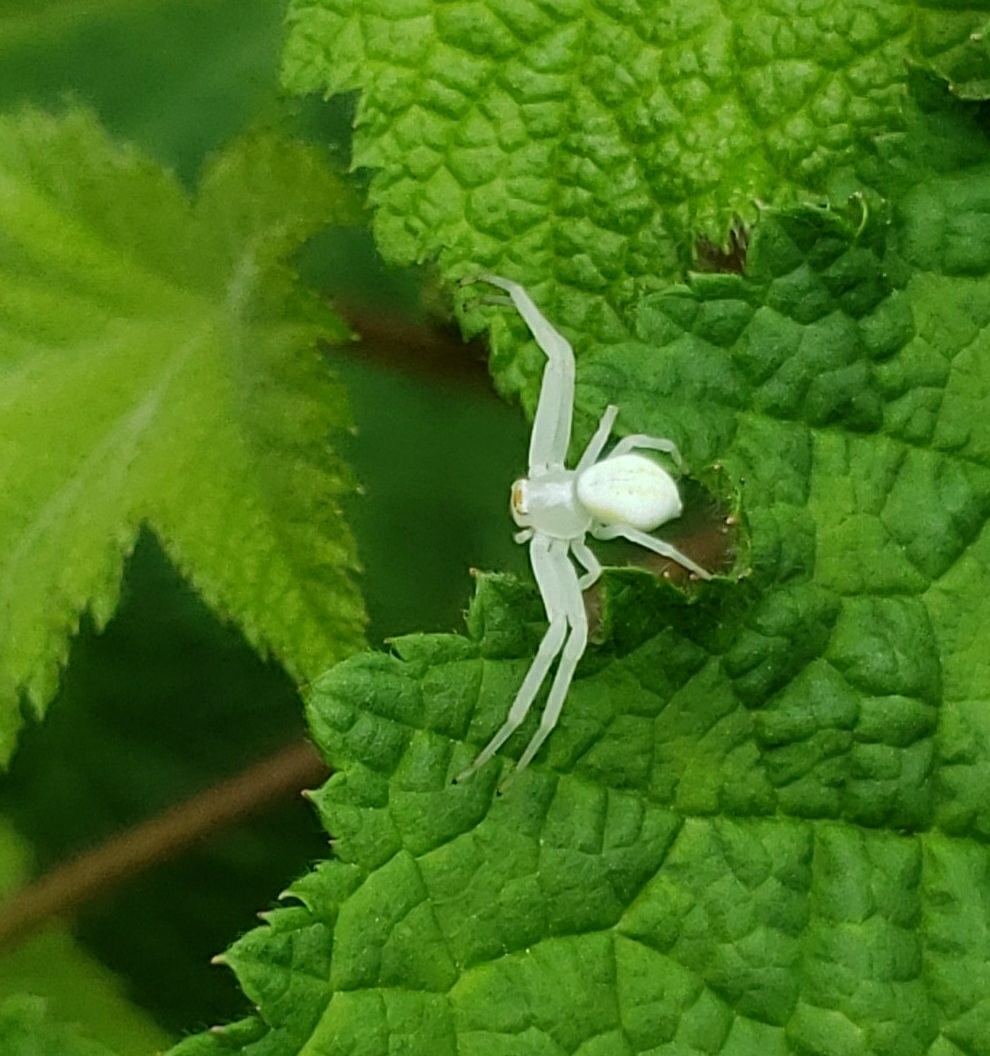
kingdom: Animalia
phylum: Arthropoda
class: Arachnida
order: Araneae
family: Thomisidae
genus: Misumena
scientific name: Misumena vatia
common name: Goldenrod crab spider
